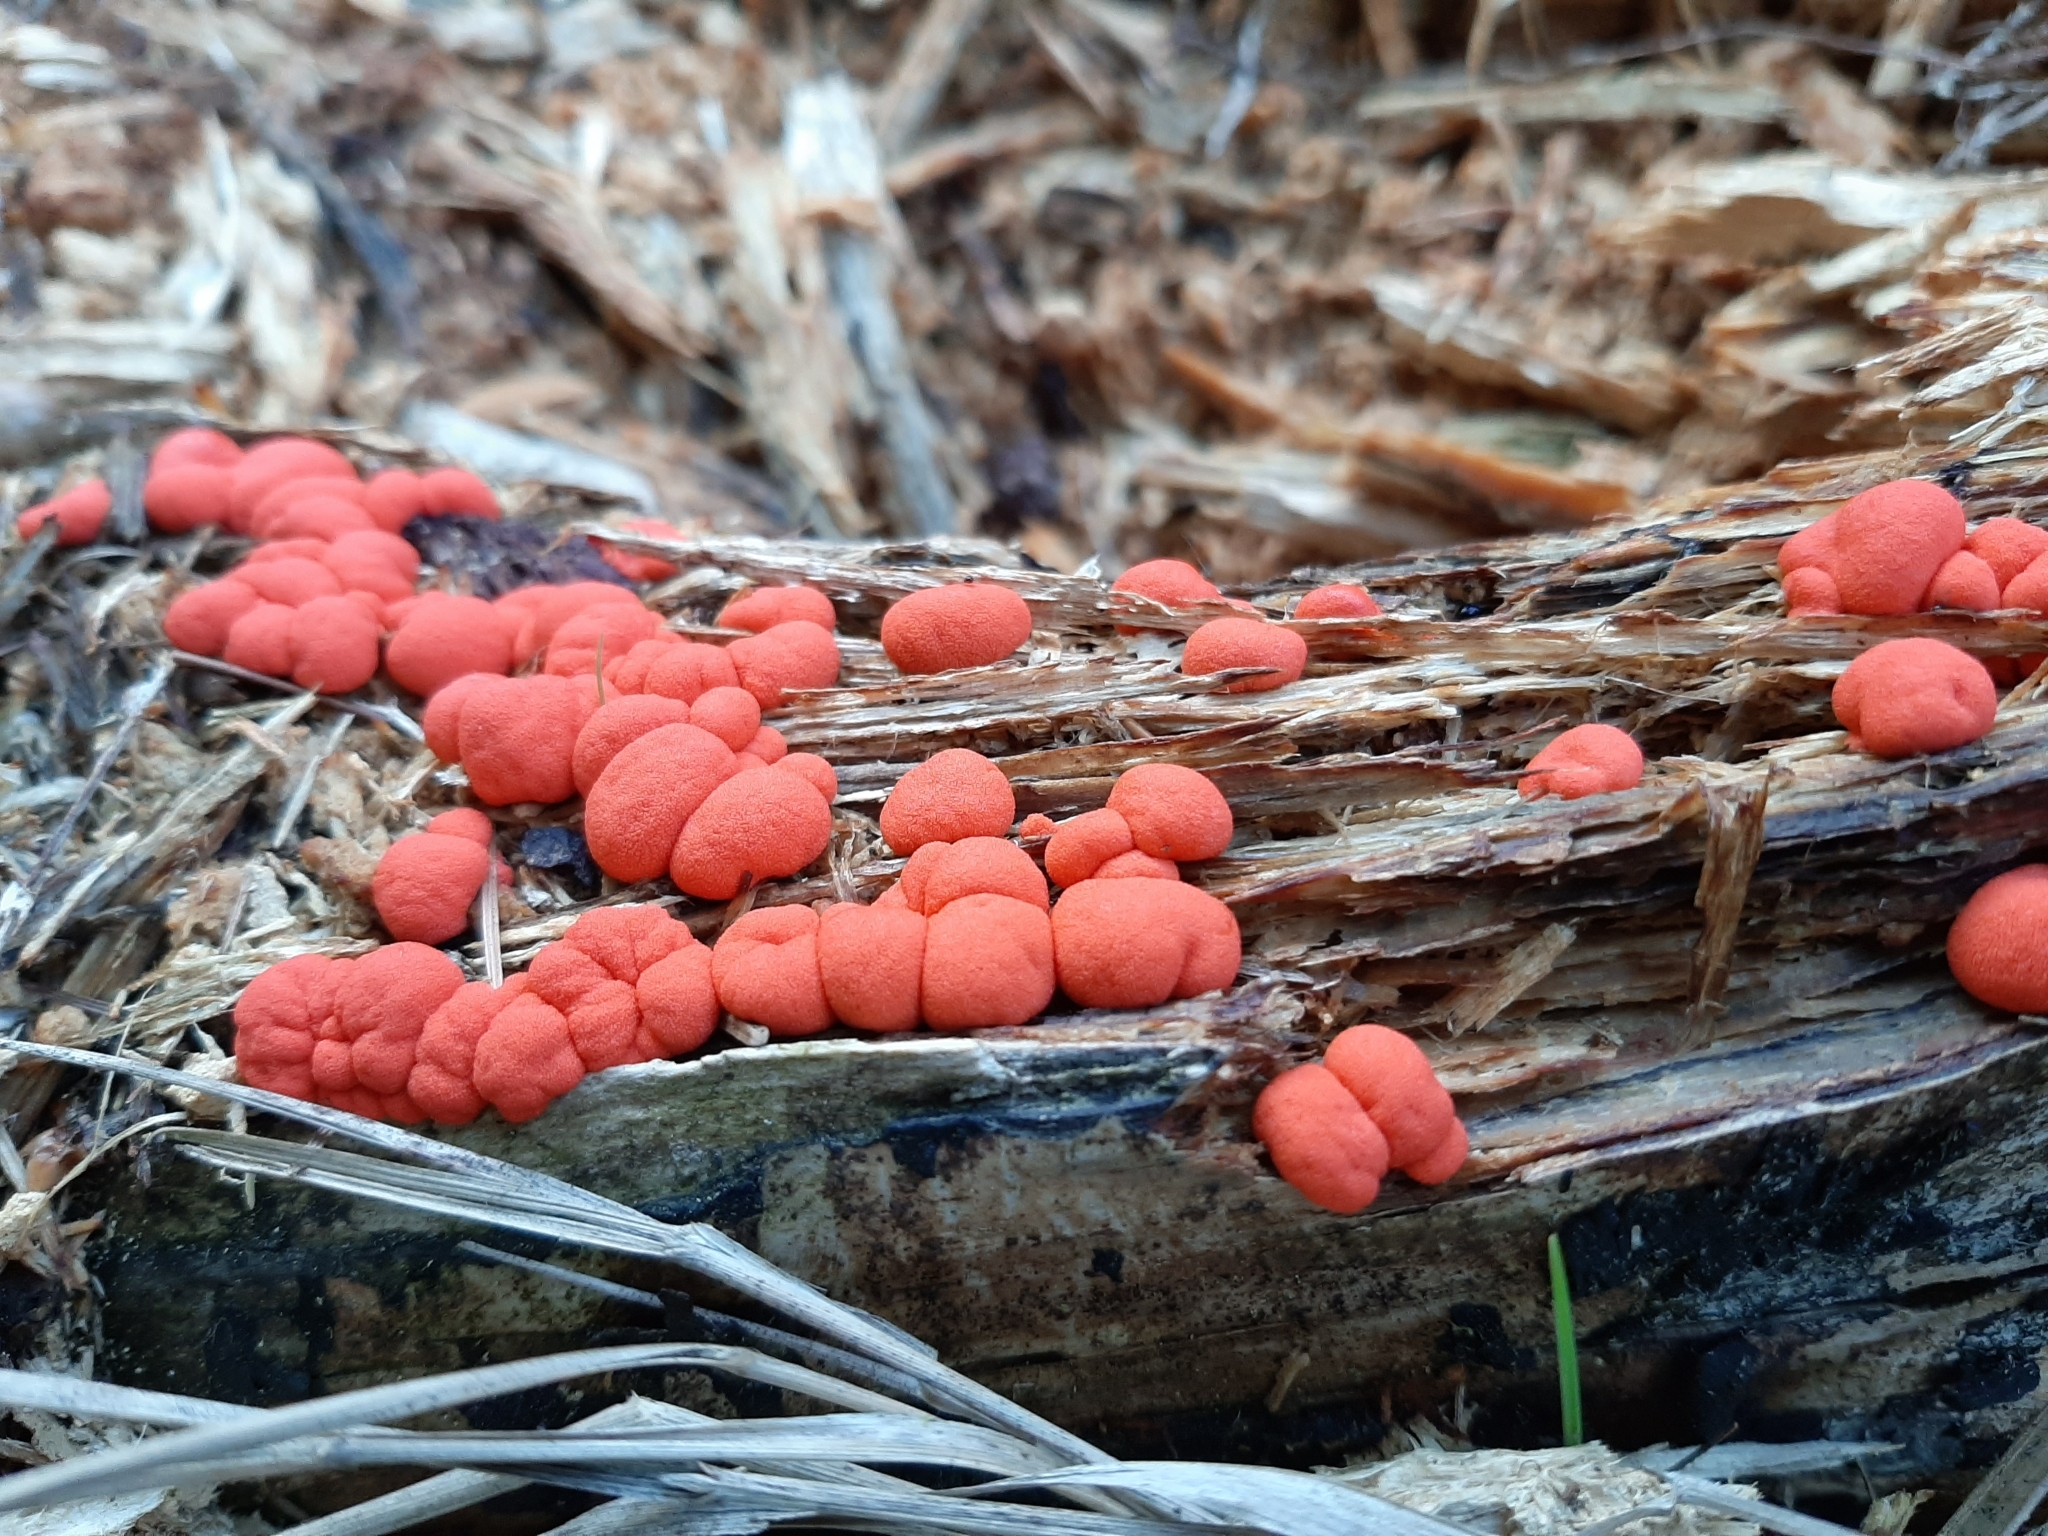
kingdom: Protozoa
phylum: Mycetozoa
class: Myxomycetes
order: Cribrariales
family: Tubiferaceae
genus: Lycogala
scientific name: Lycogala epidendrum
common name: Wolf's milk
